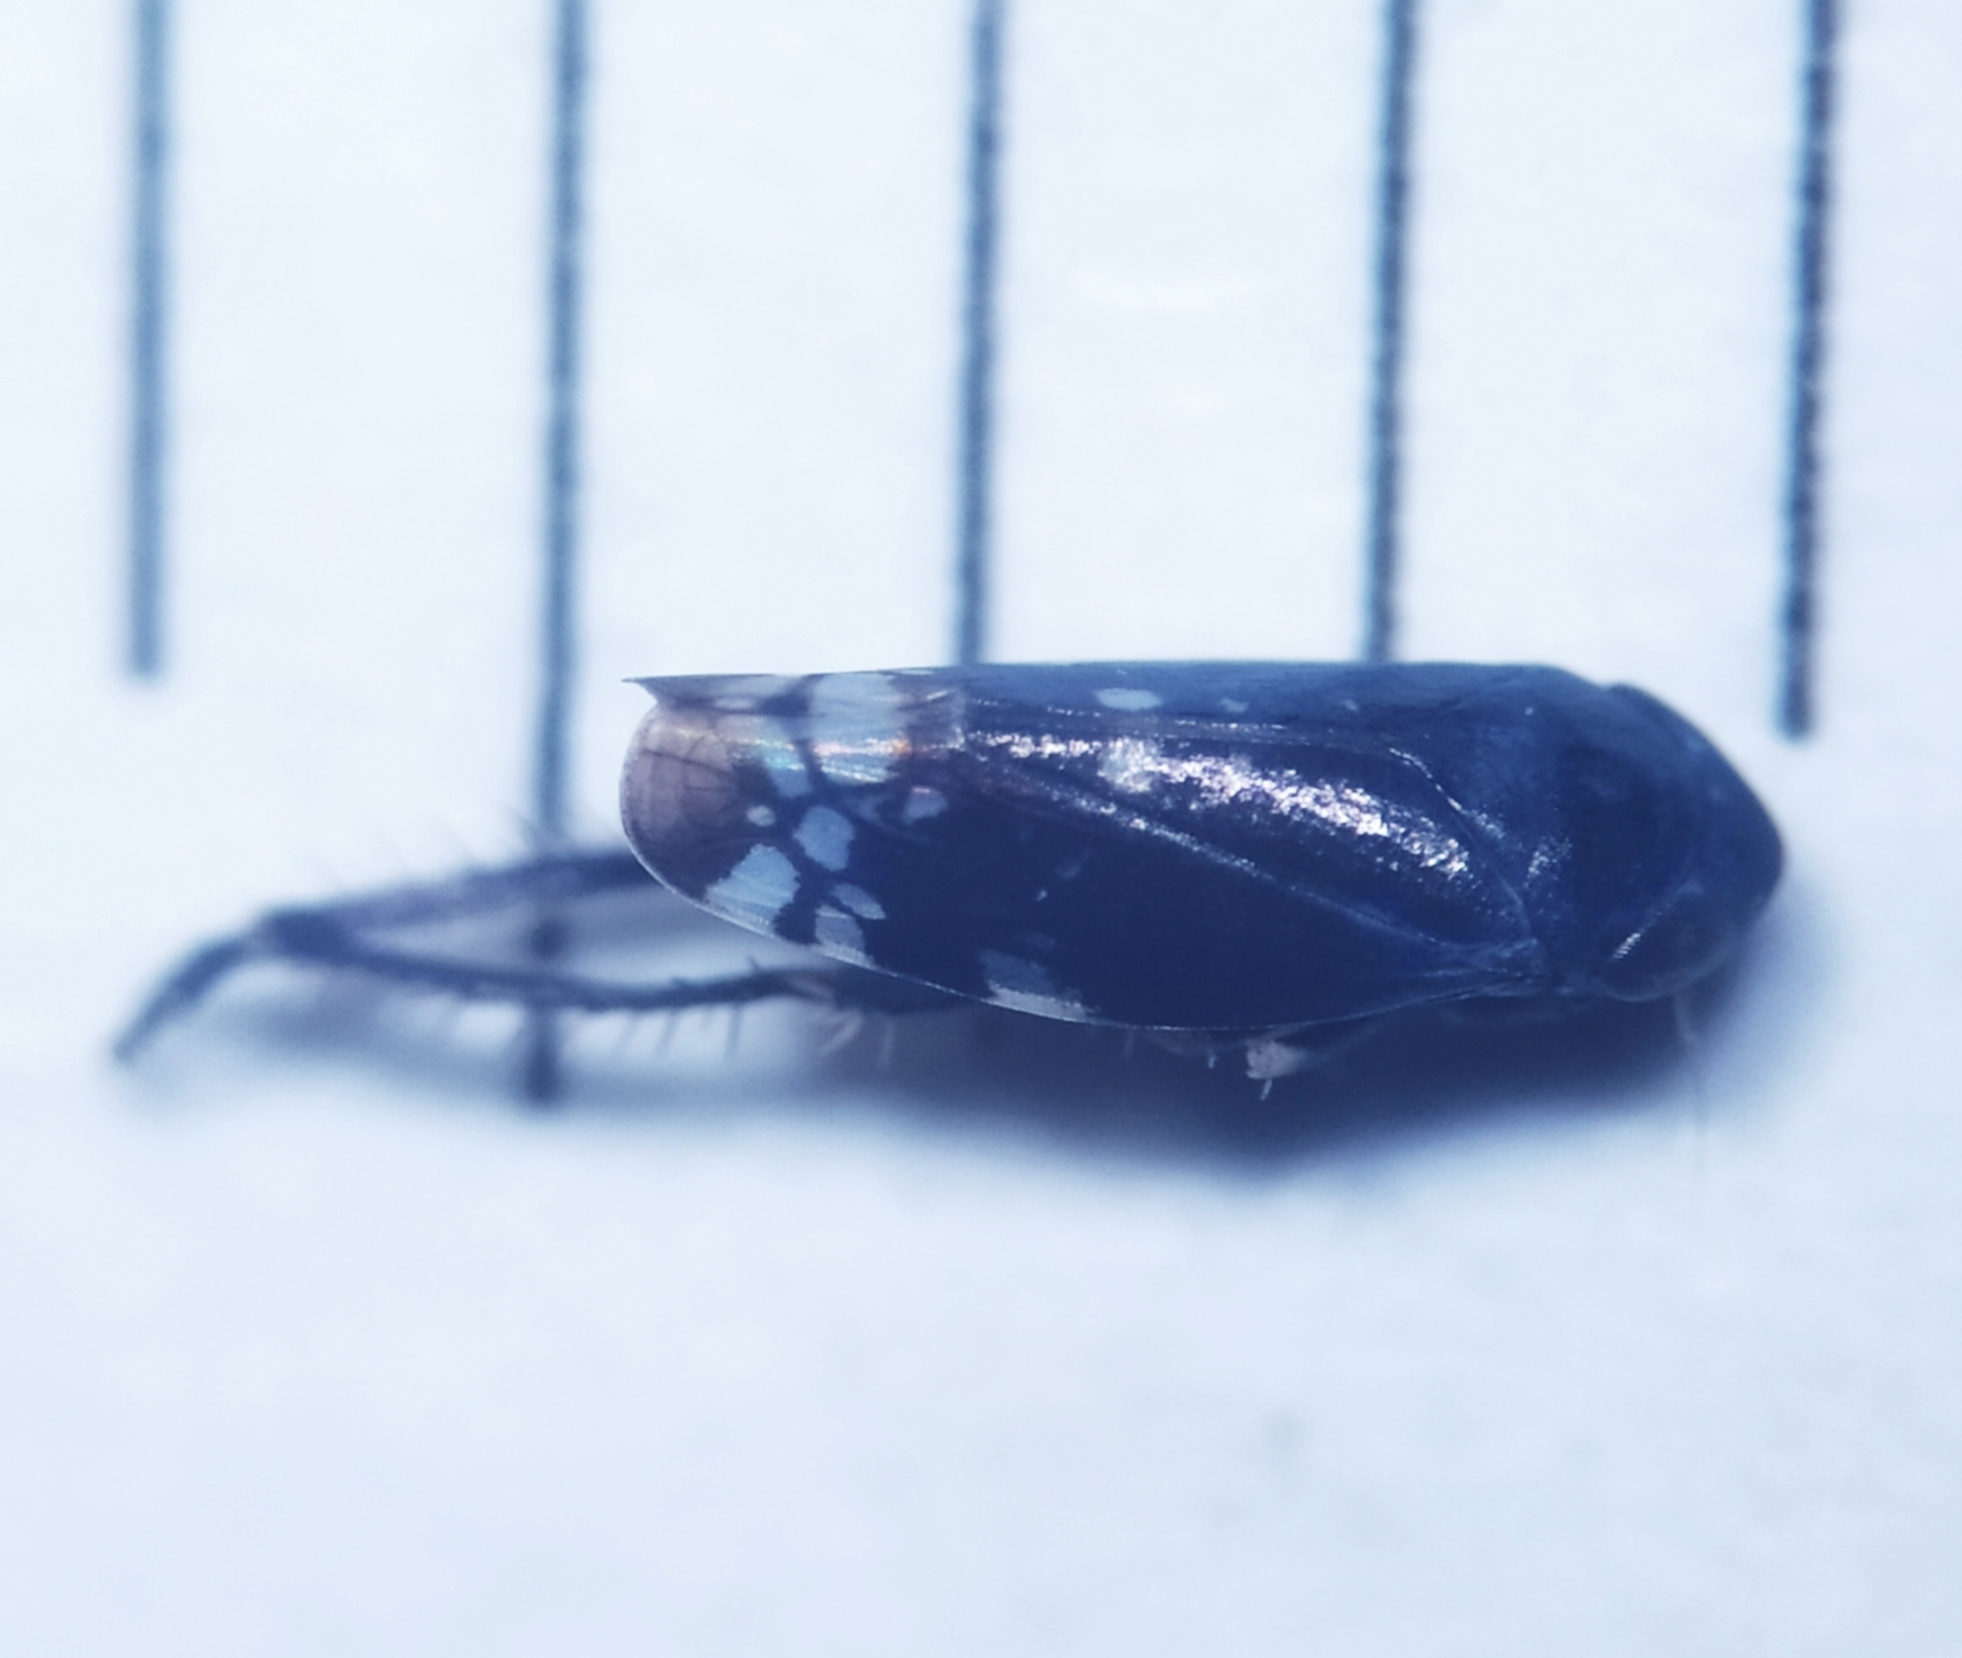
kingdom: Animalia
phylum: Arthropoda
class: Insecta
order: Hemiptera
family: Cicadellidae
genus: Neoaliturus
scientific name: Neoaliturus fenestratus
